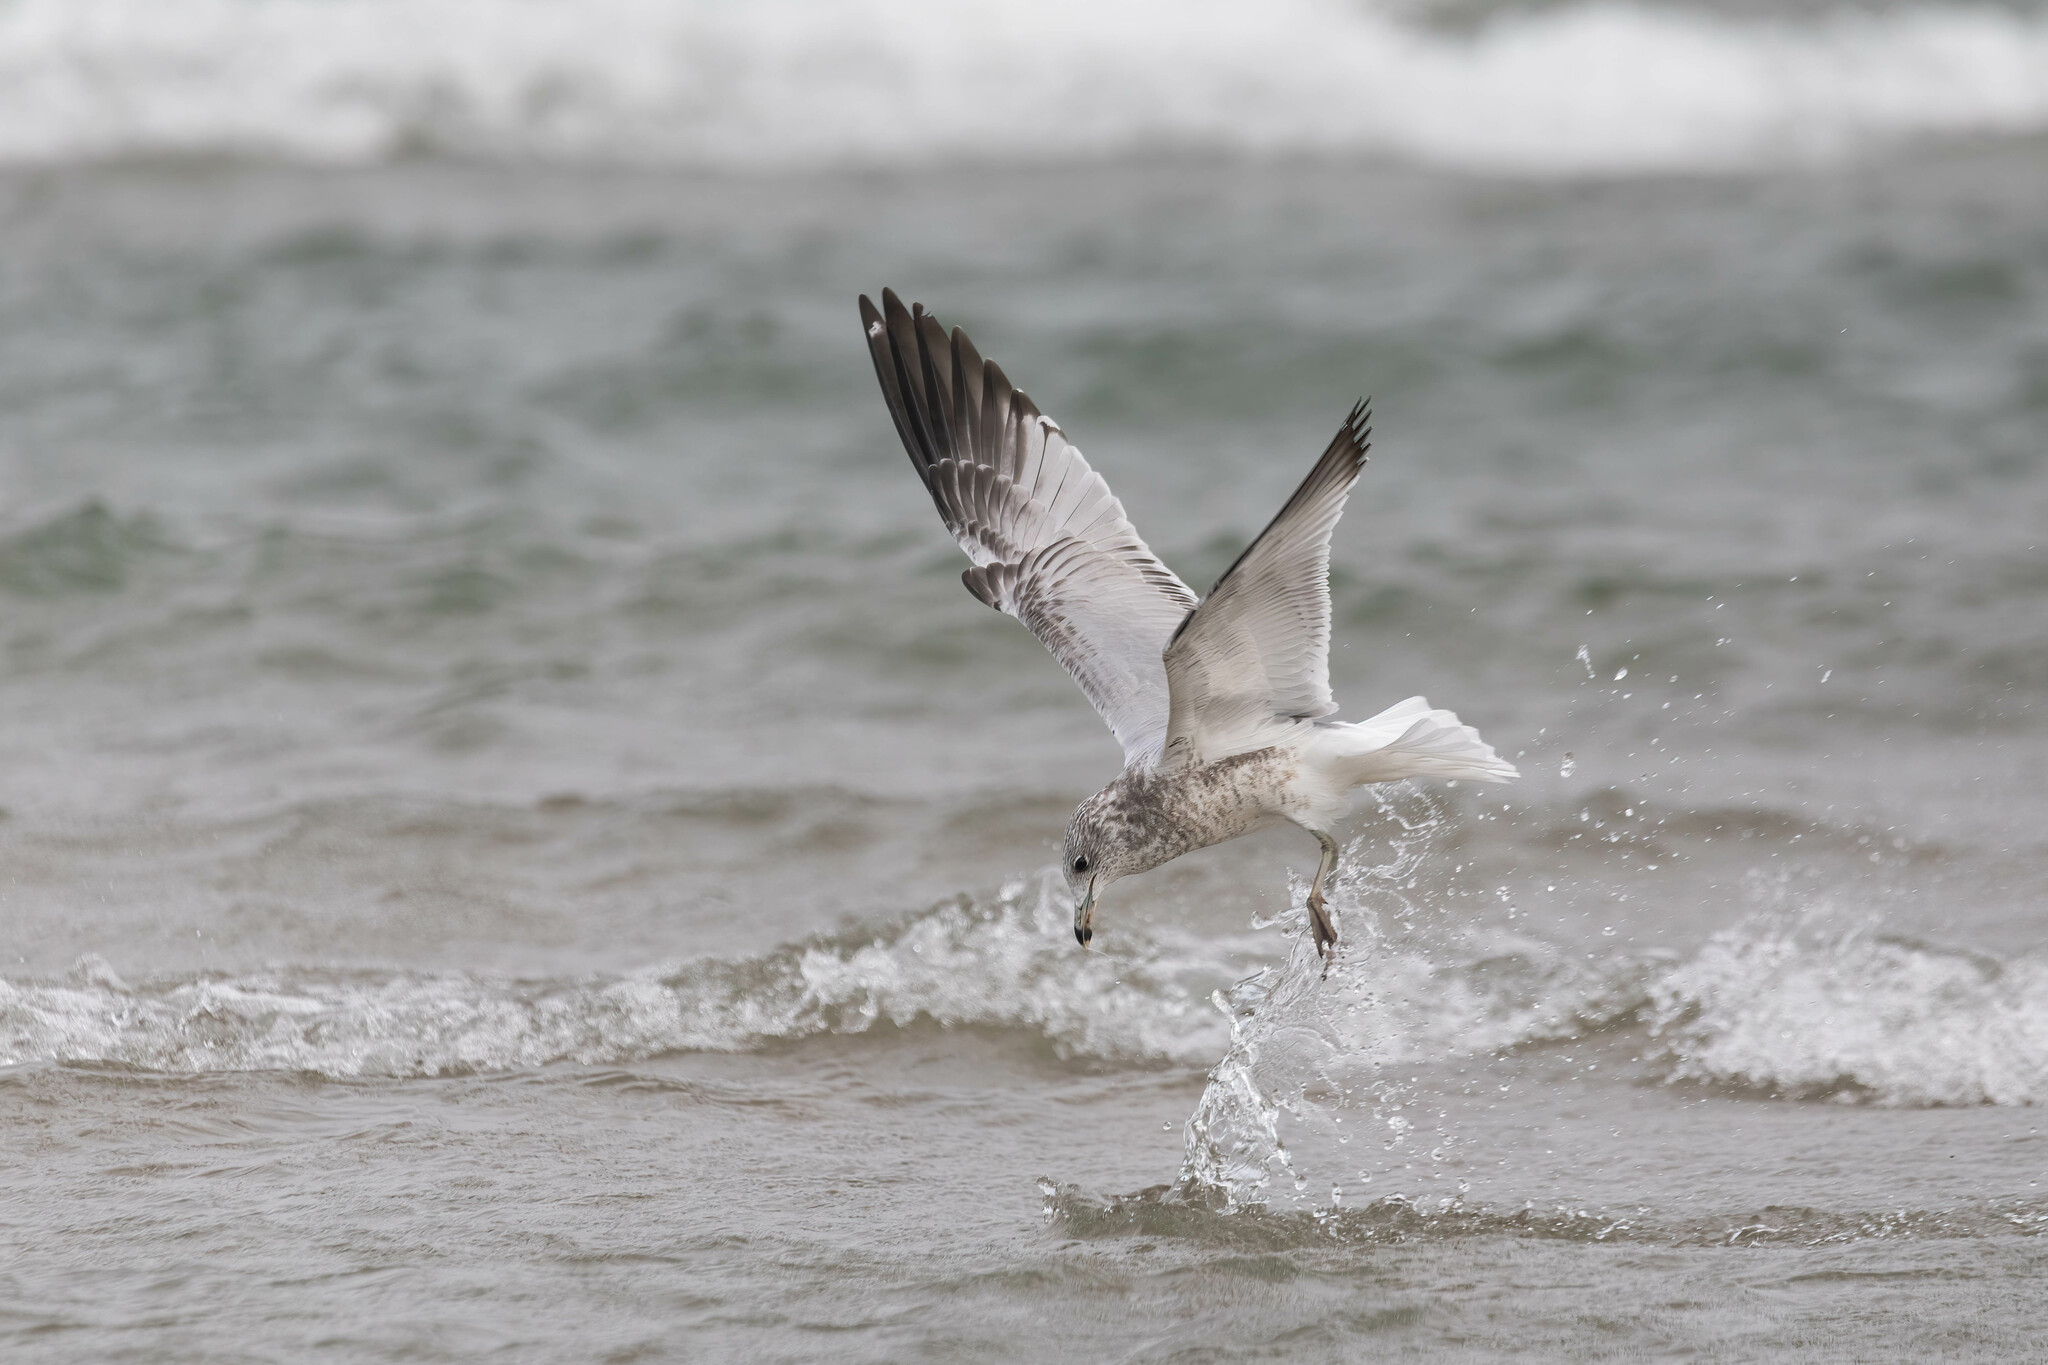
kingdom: Animalia
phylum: Chordata
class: Aves
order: Charadriiformes
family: Laridae
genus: Larus
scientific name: Larus delawarensis
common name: Ring-billed gull
